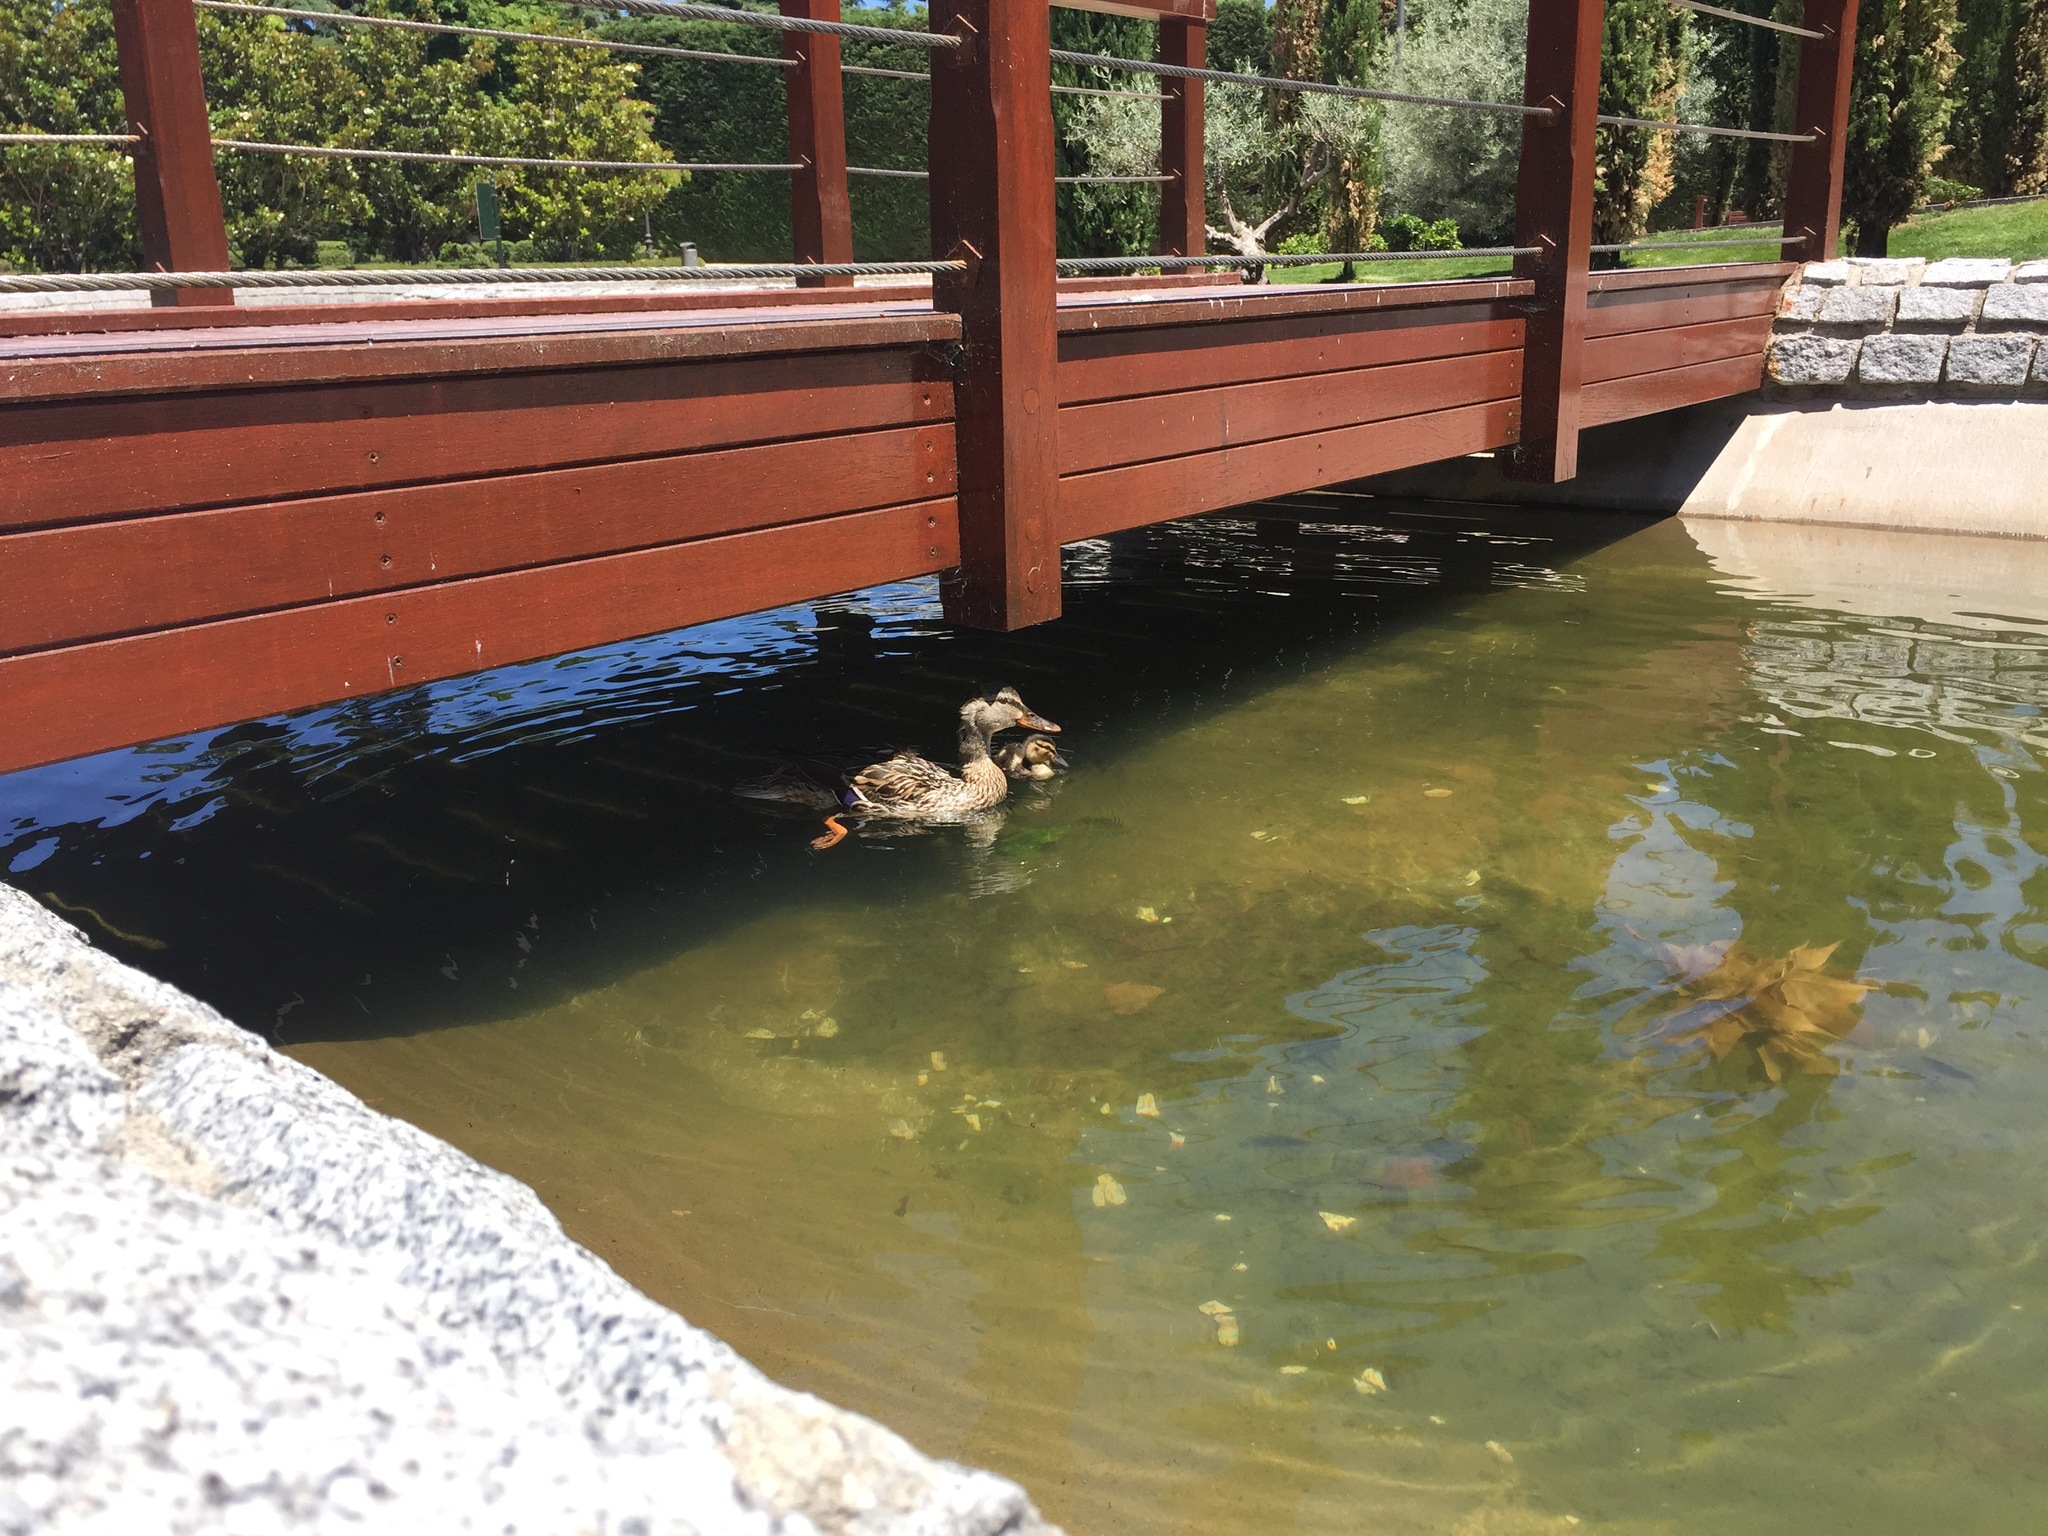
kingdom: Animalia
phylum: Chordata
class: Aves
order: Anseriformes
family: Anatidae
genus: Anas
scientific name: Anas platyrhynchos
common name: Mallard
